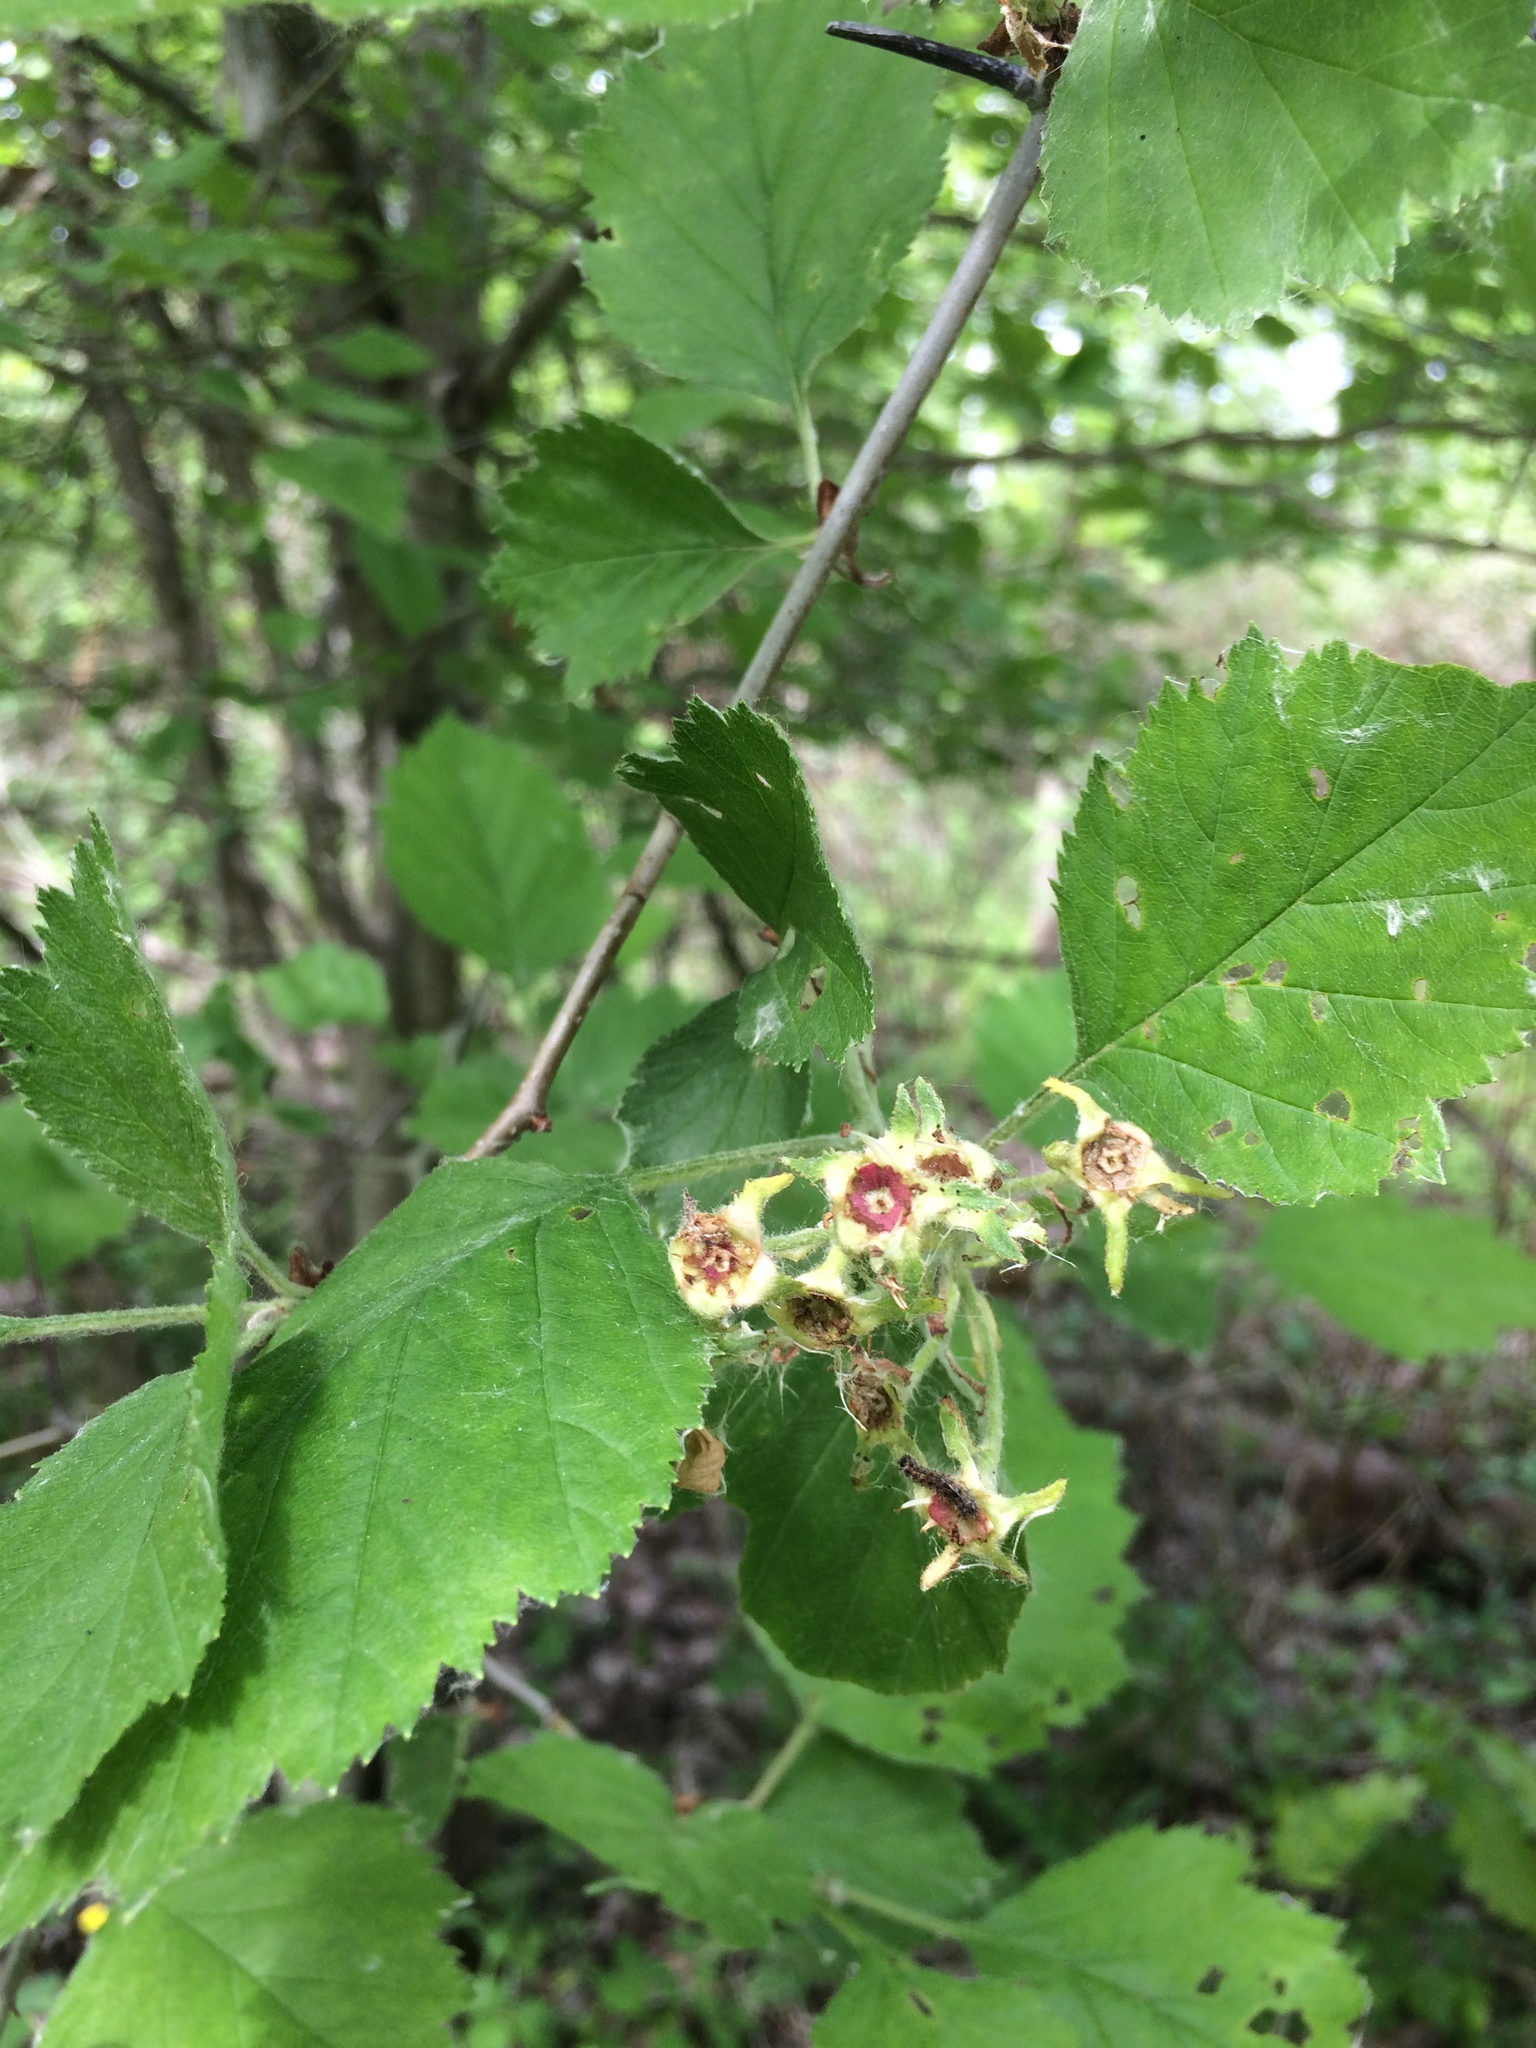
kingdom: Plantae
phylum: Tracheophyta
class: Magnoliopsida
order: Rosales
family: Rosaceae
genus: Crataegus
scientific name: Crataegus submollis
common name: Hairy cockspurthorn
